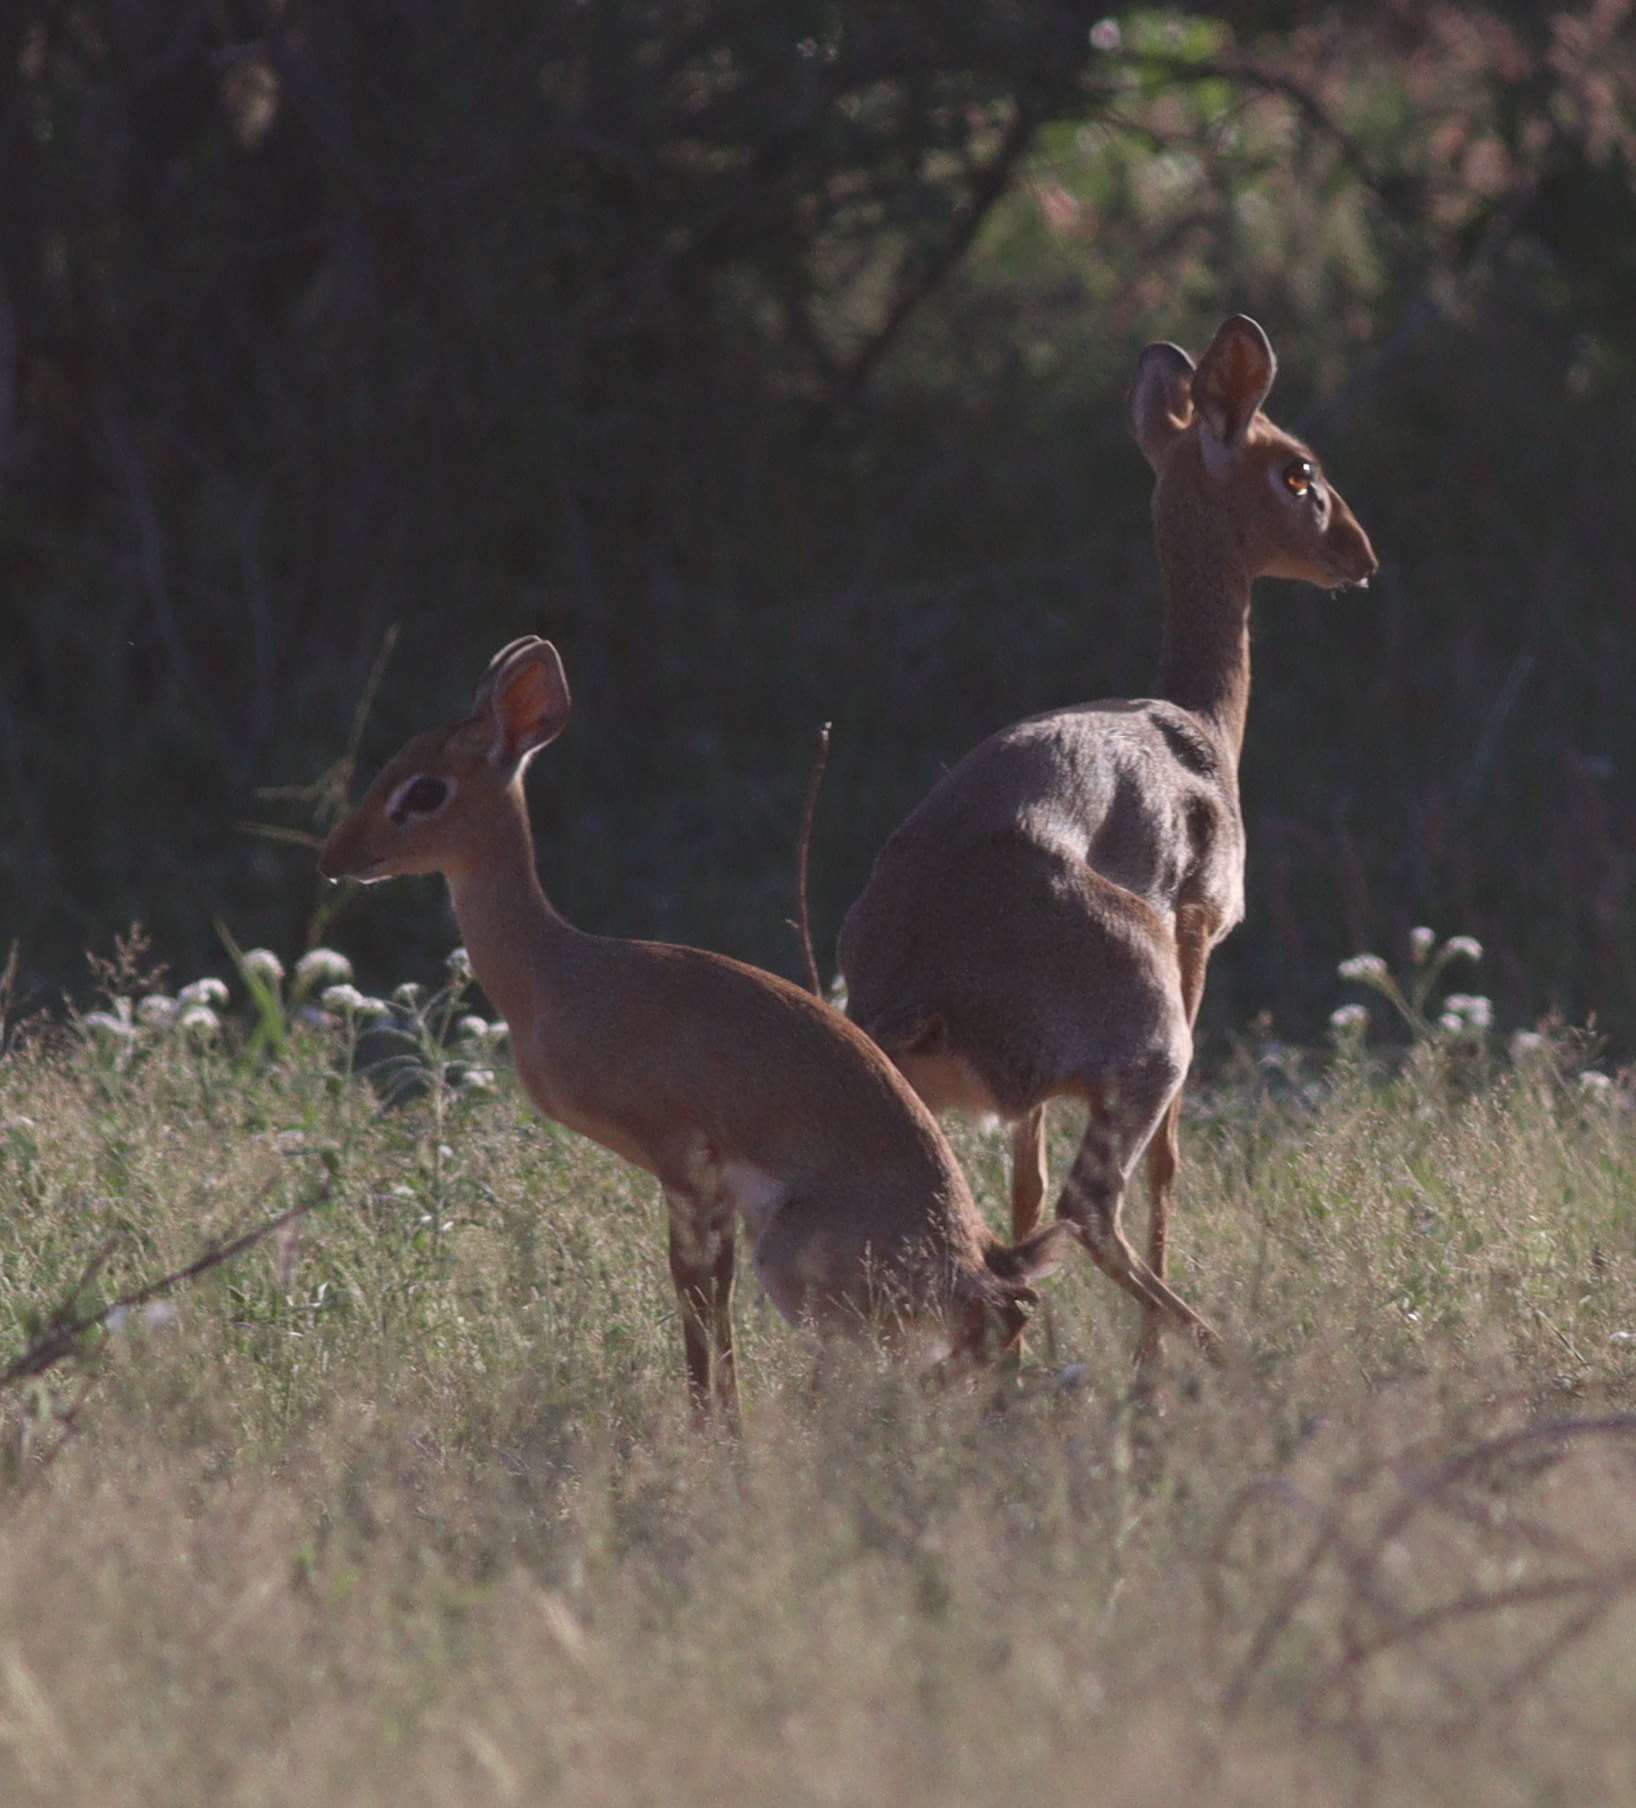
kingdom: Animalia
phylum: Chordata
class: Mammalia
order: Artiodactyla
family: Bovidae
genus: Madoqua
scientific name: Madoqua kirkii
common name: Kirk's dik-dik
